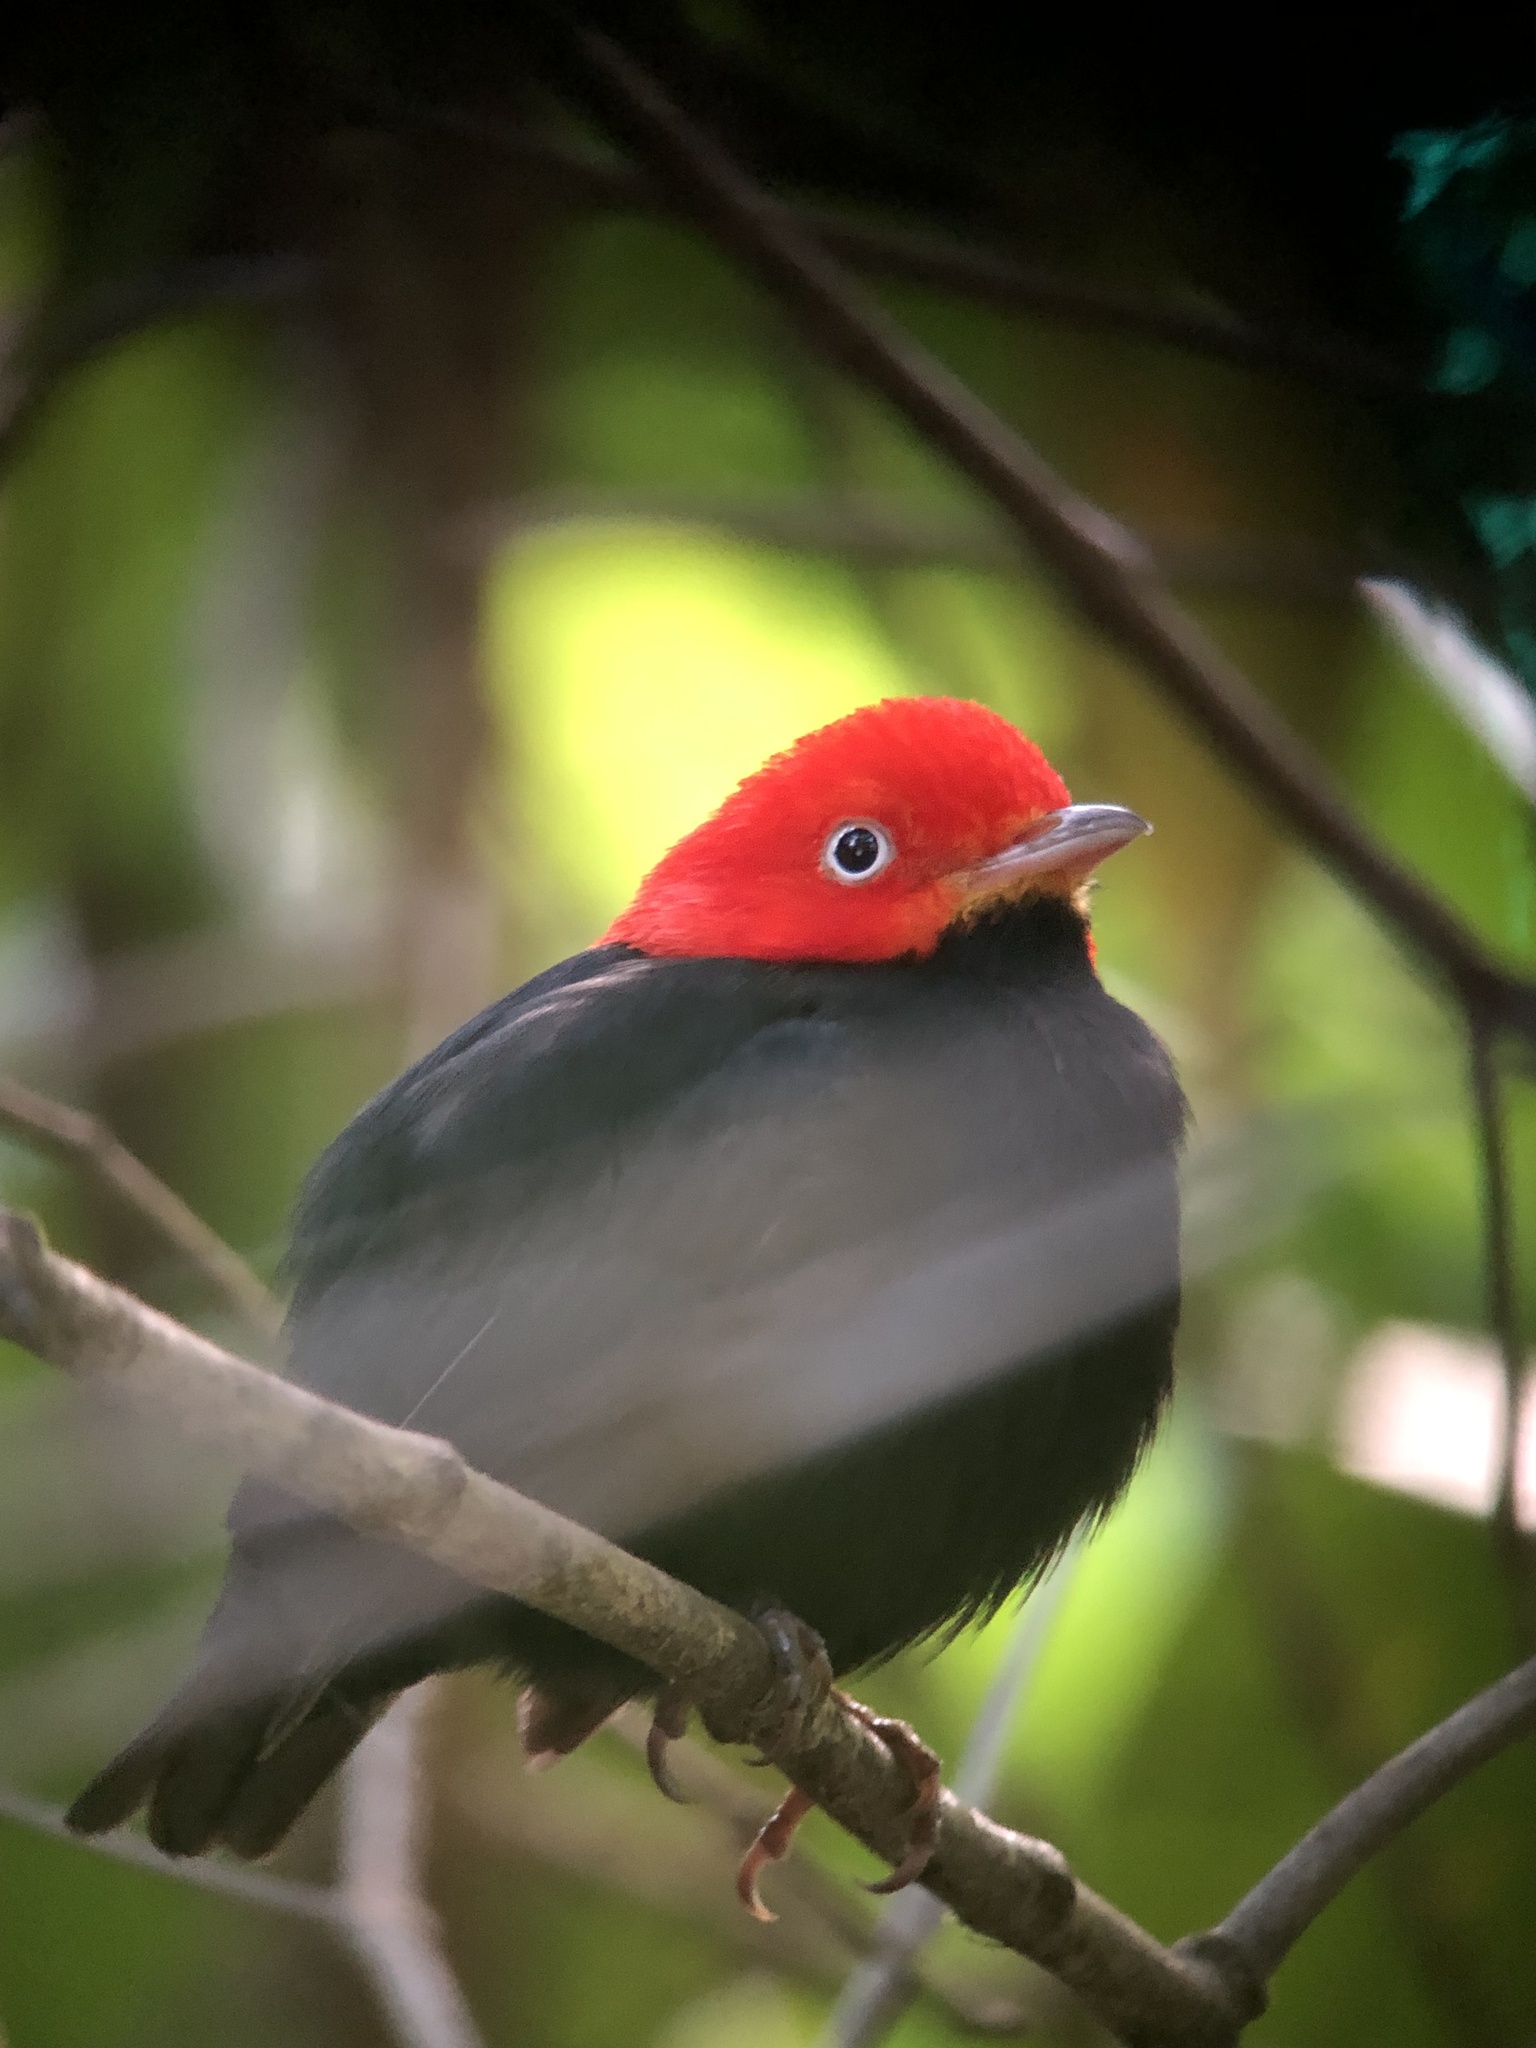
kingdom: Animalia
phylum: Chordata
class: Aves
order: Passeriformes
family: Pipridae
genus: Pipra
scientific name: Pipra mentalis
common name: Red-capped manakin
